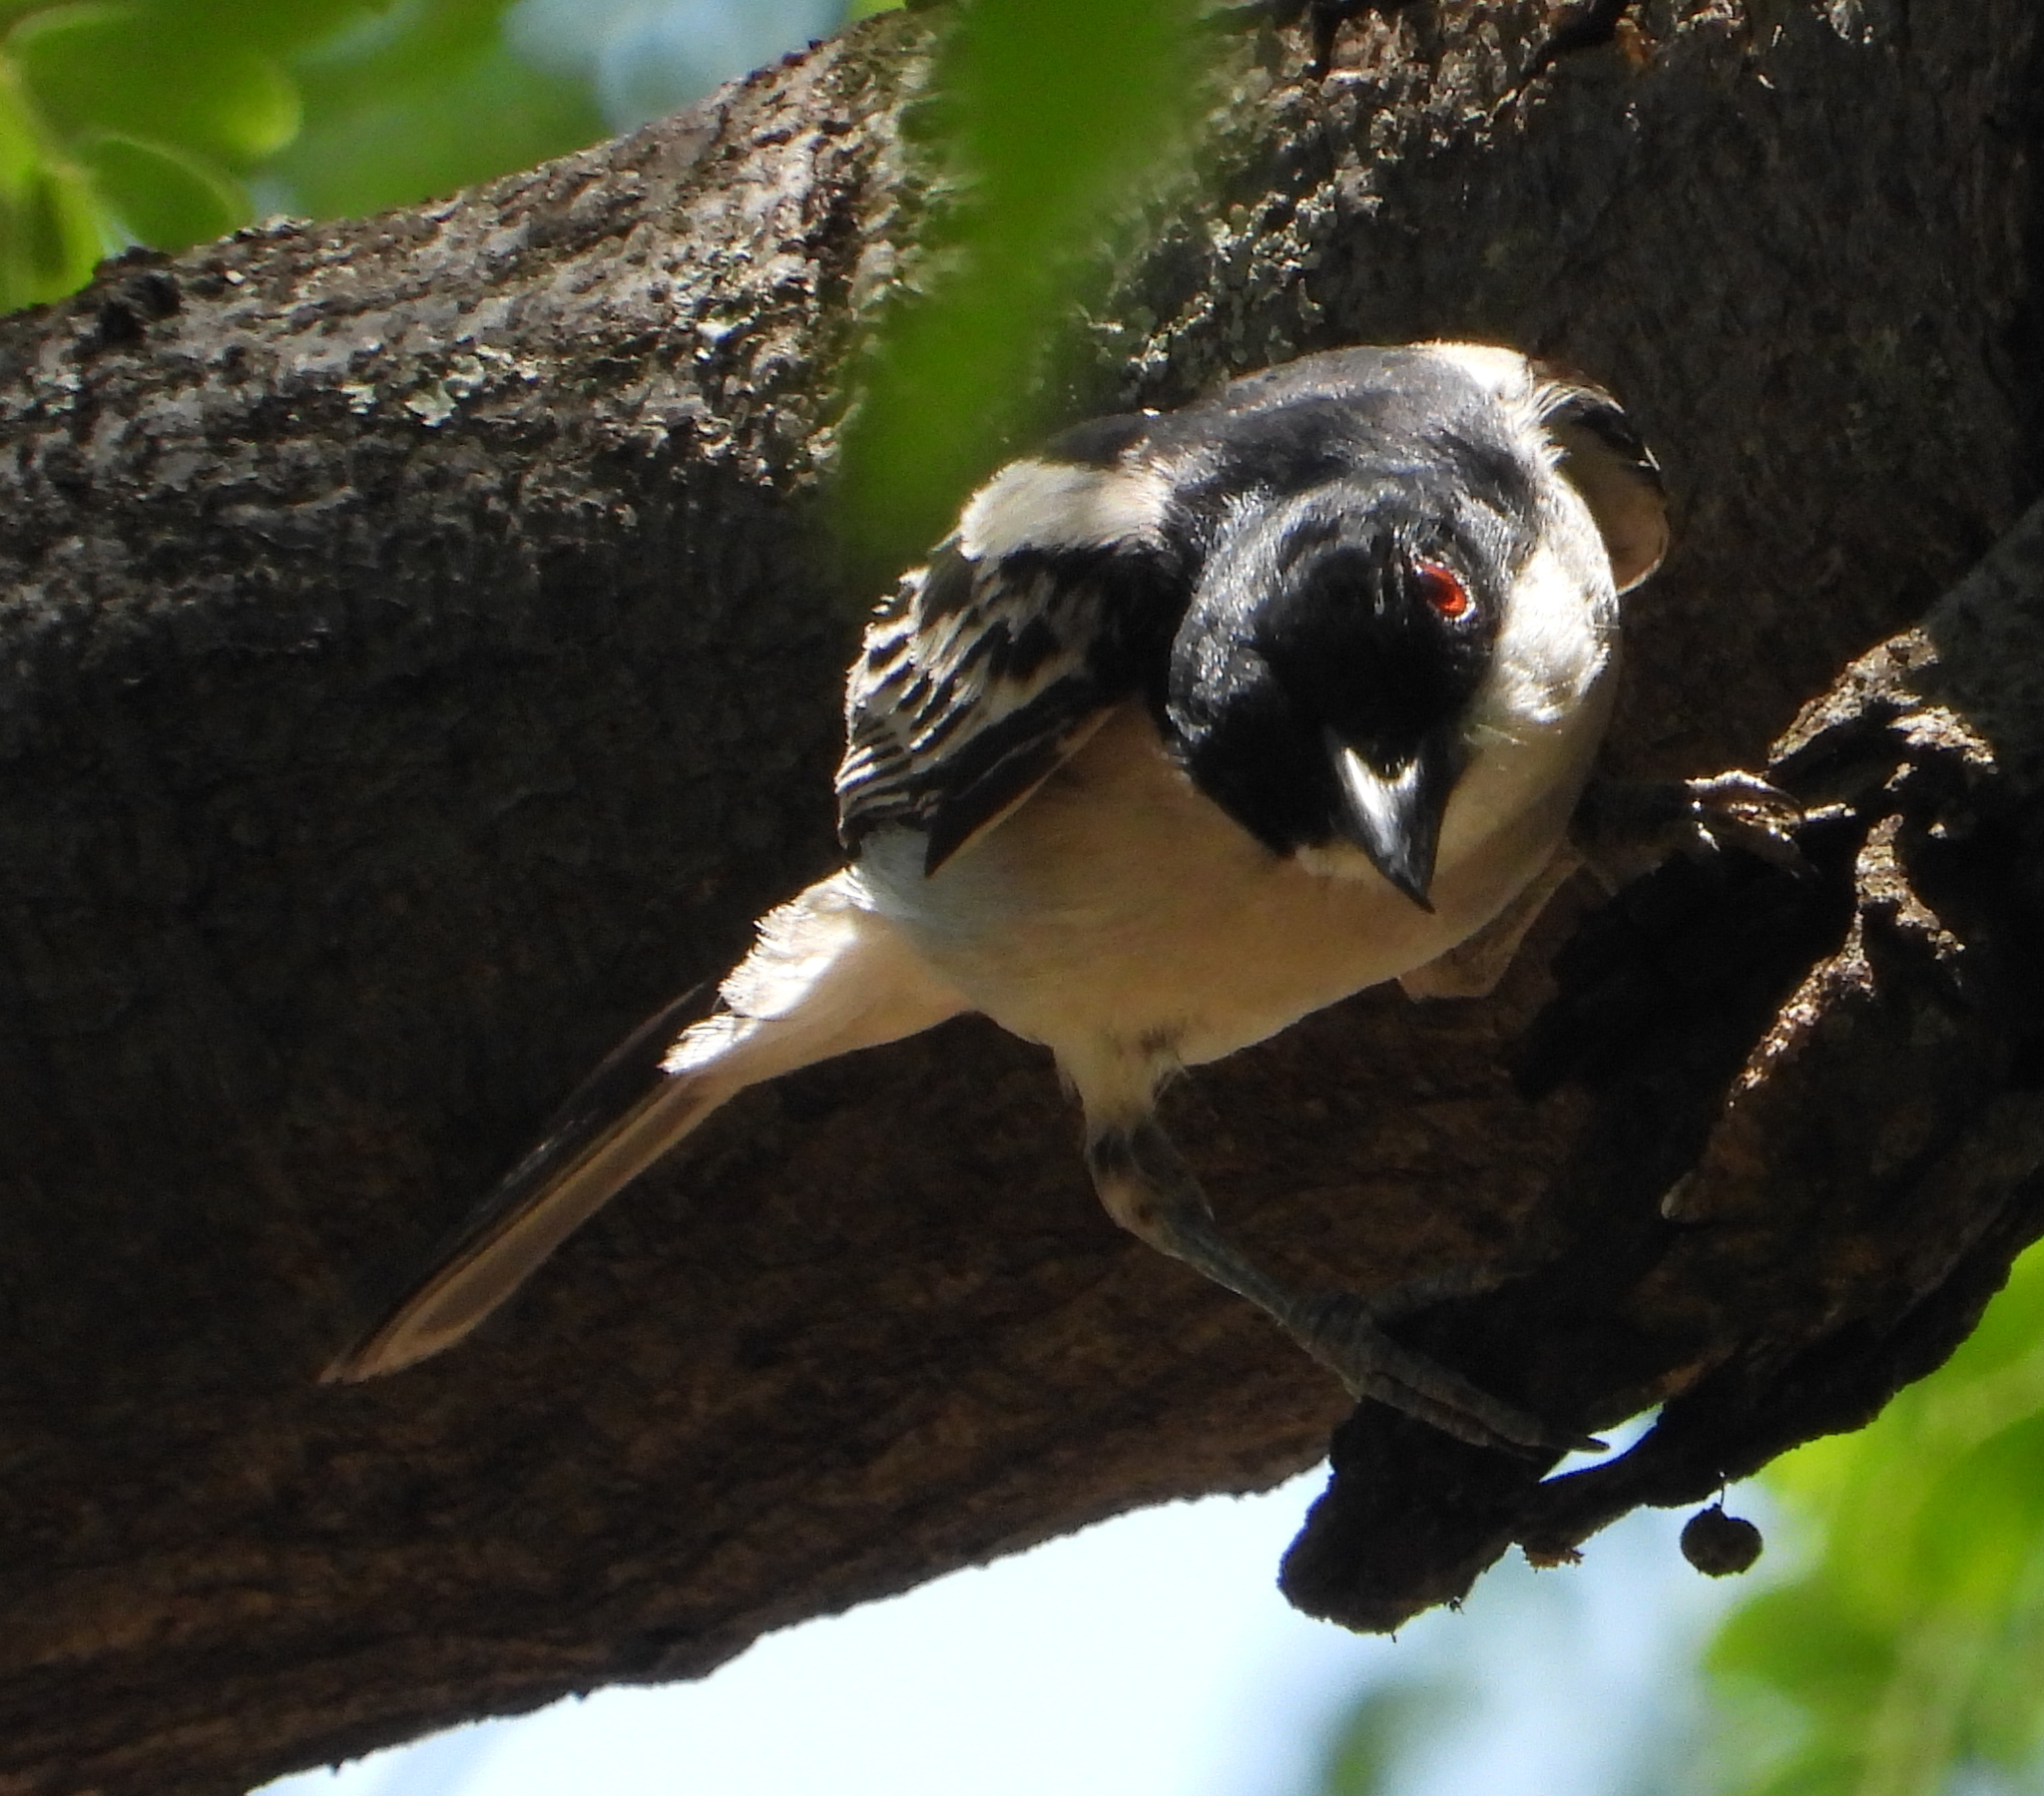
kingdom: Animalia
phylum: Chordata
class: Aves
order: Passeriformes
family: Malaconotidae
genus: Dryoscopus
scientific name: Dryoscopus cubla
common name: Black-backed puffback
